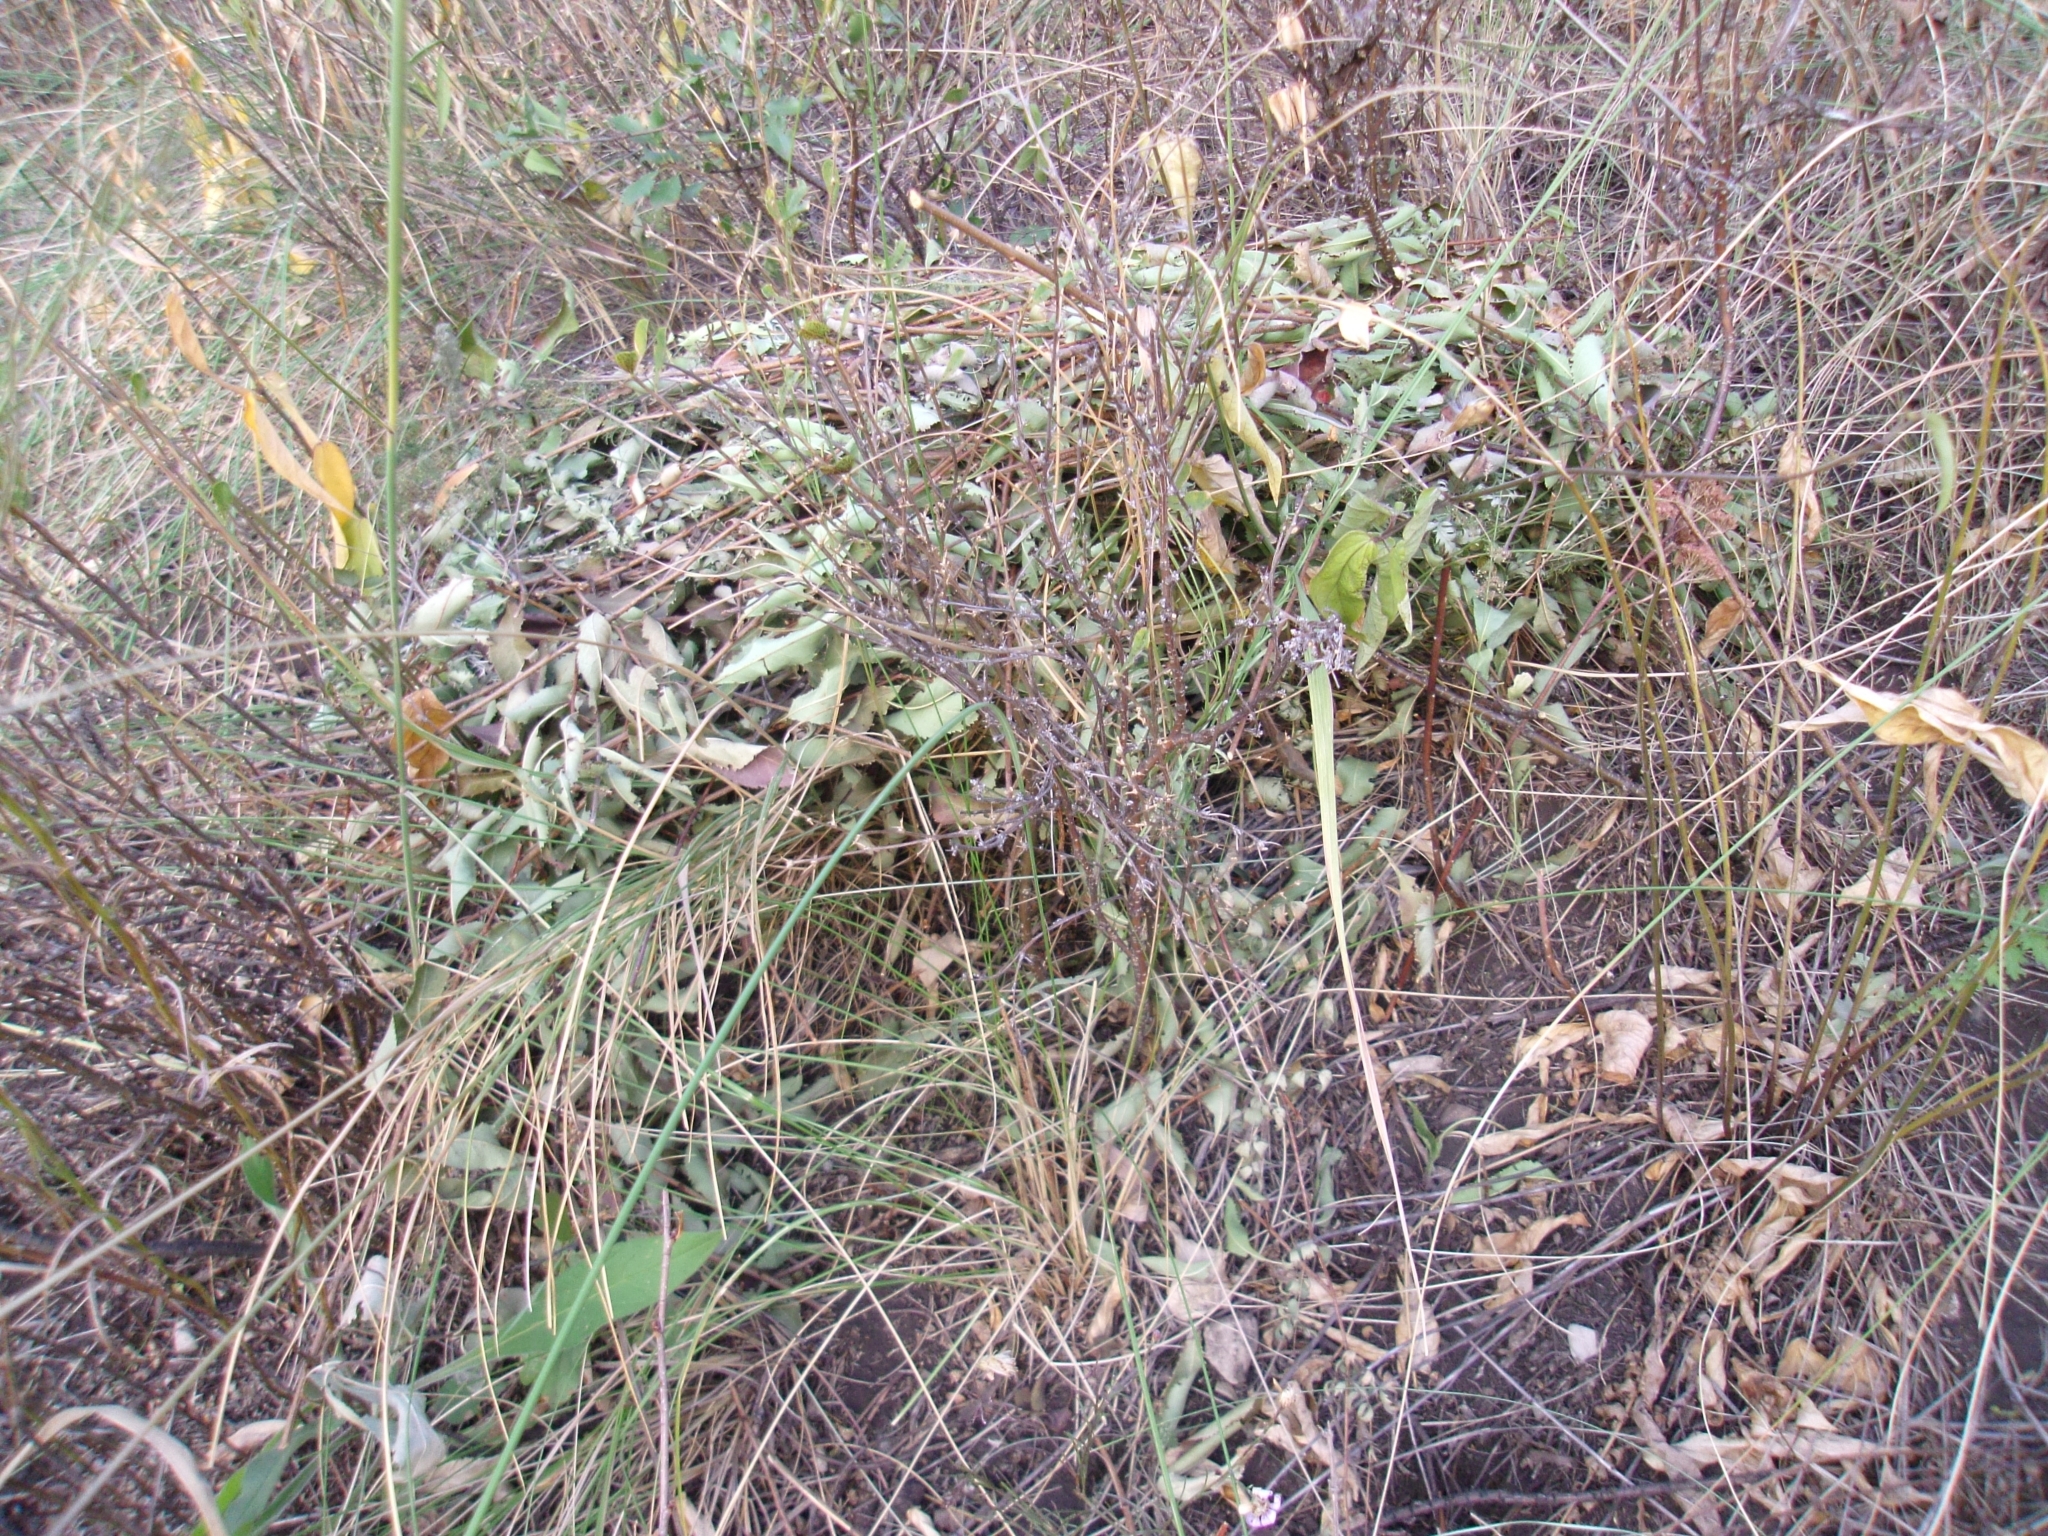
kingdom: Animalia
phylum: Chordata
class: Mammalia
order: Lagomorpha
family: Ochotonidae
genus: Ochotona
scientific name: Ochotona pusilla
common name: Steppe pika
